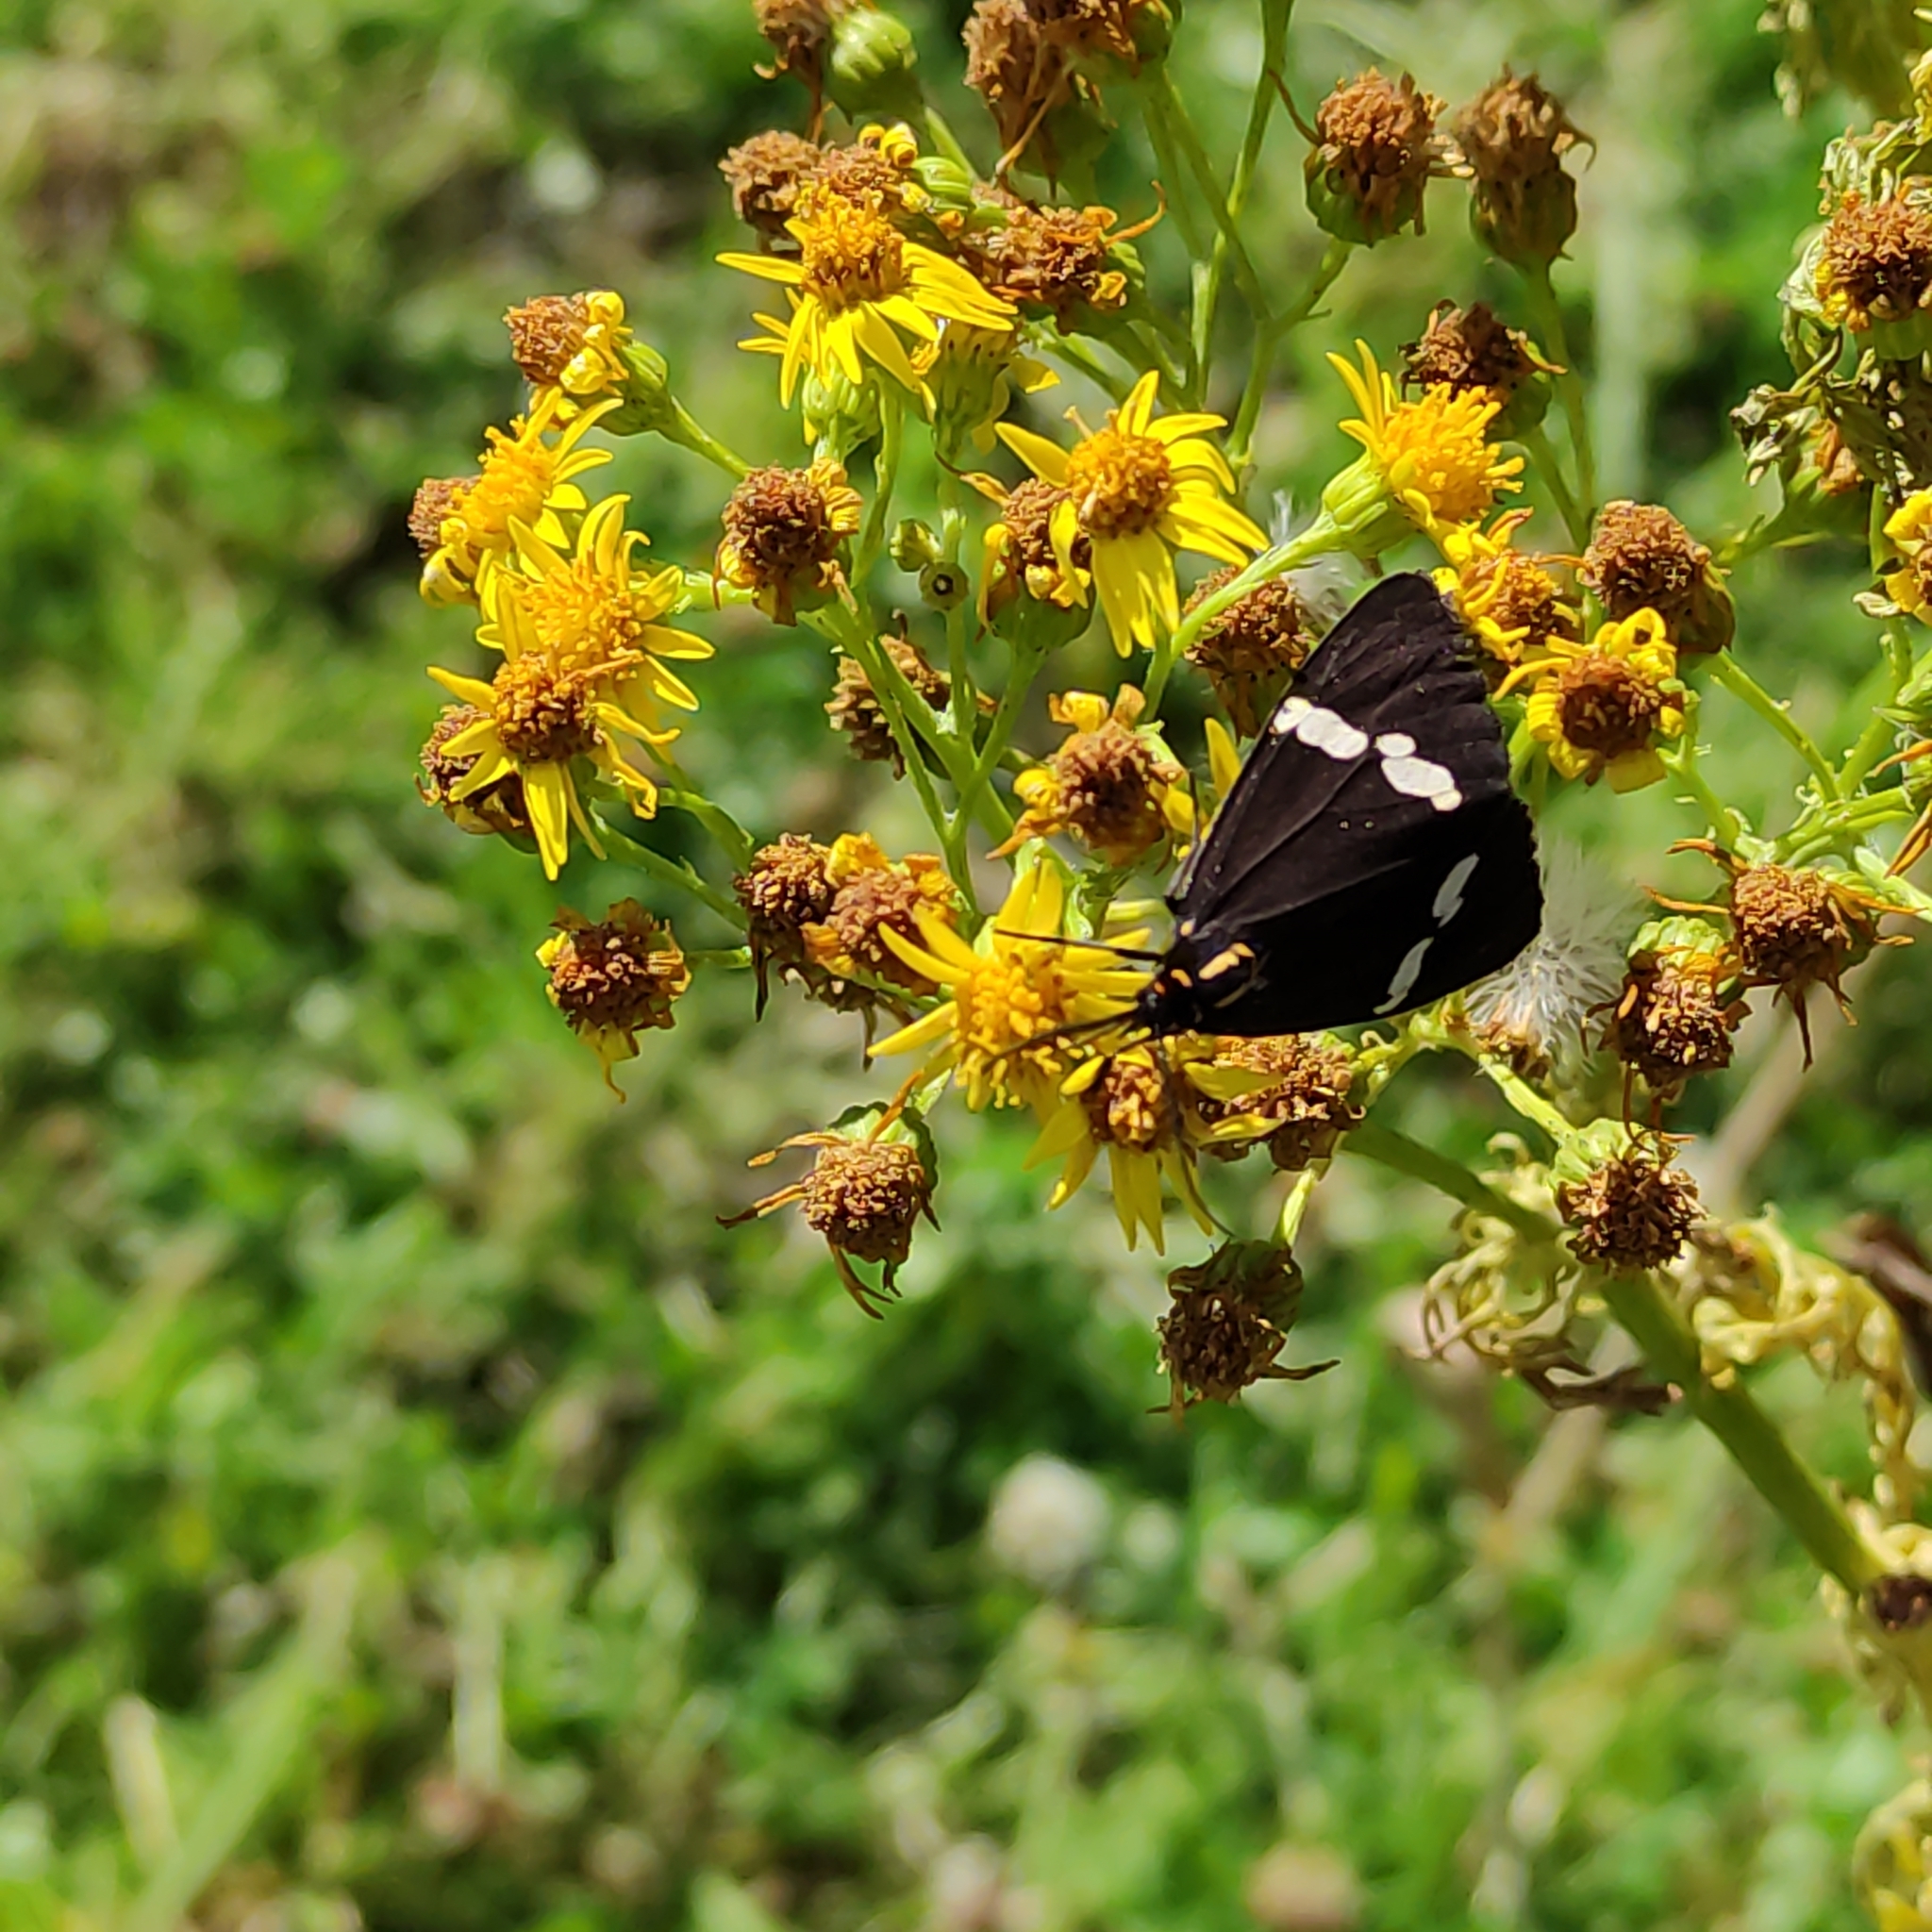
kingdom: Animalia
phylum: Arthropoda
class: Insecta
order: Lepidoptera
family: Erebidae
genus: Nyctemera
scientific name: Nyctemera annulatum
